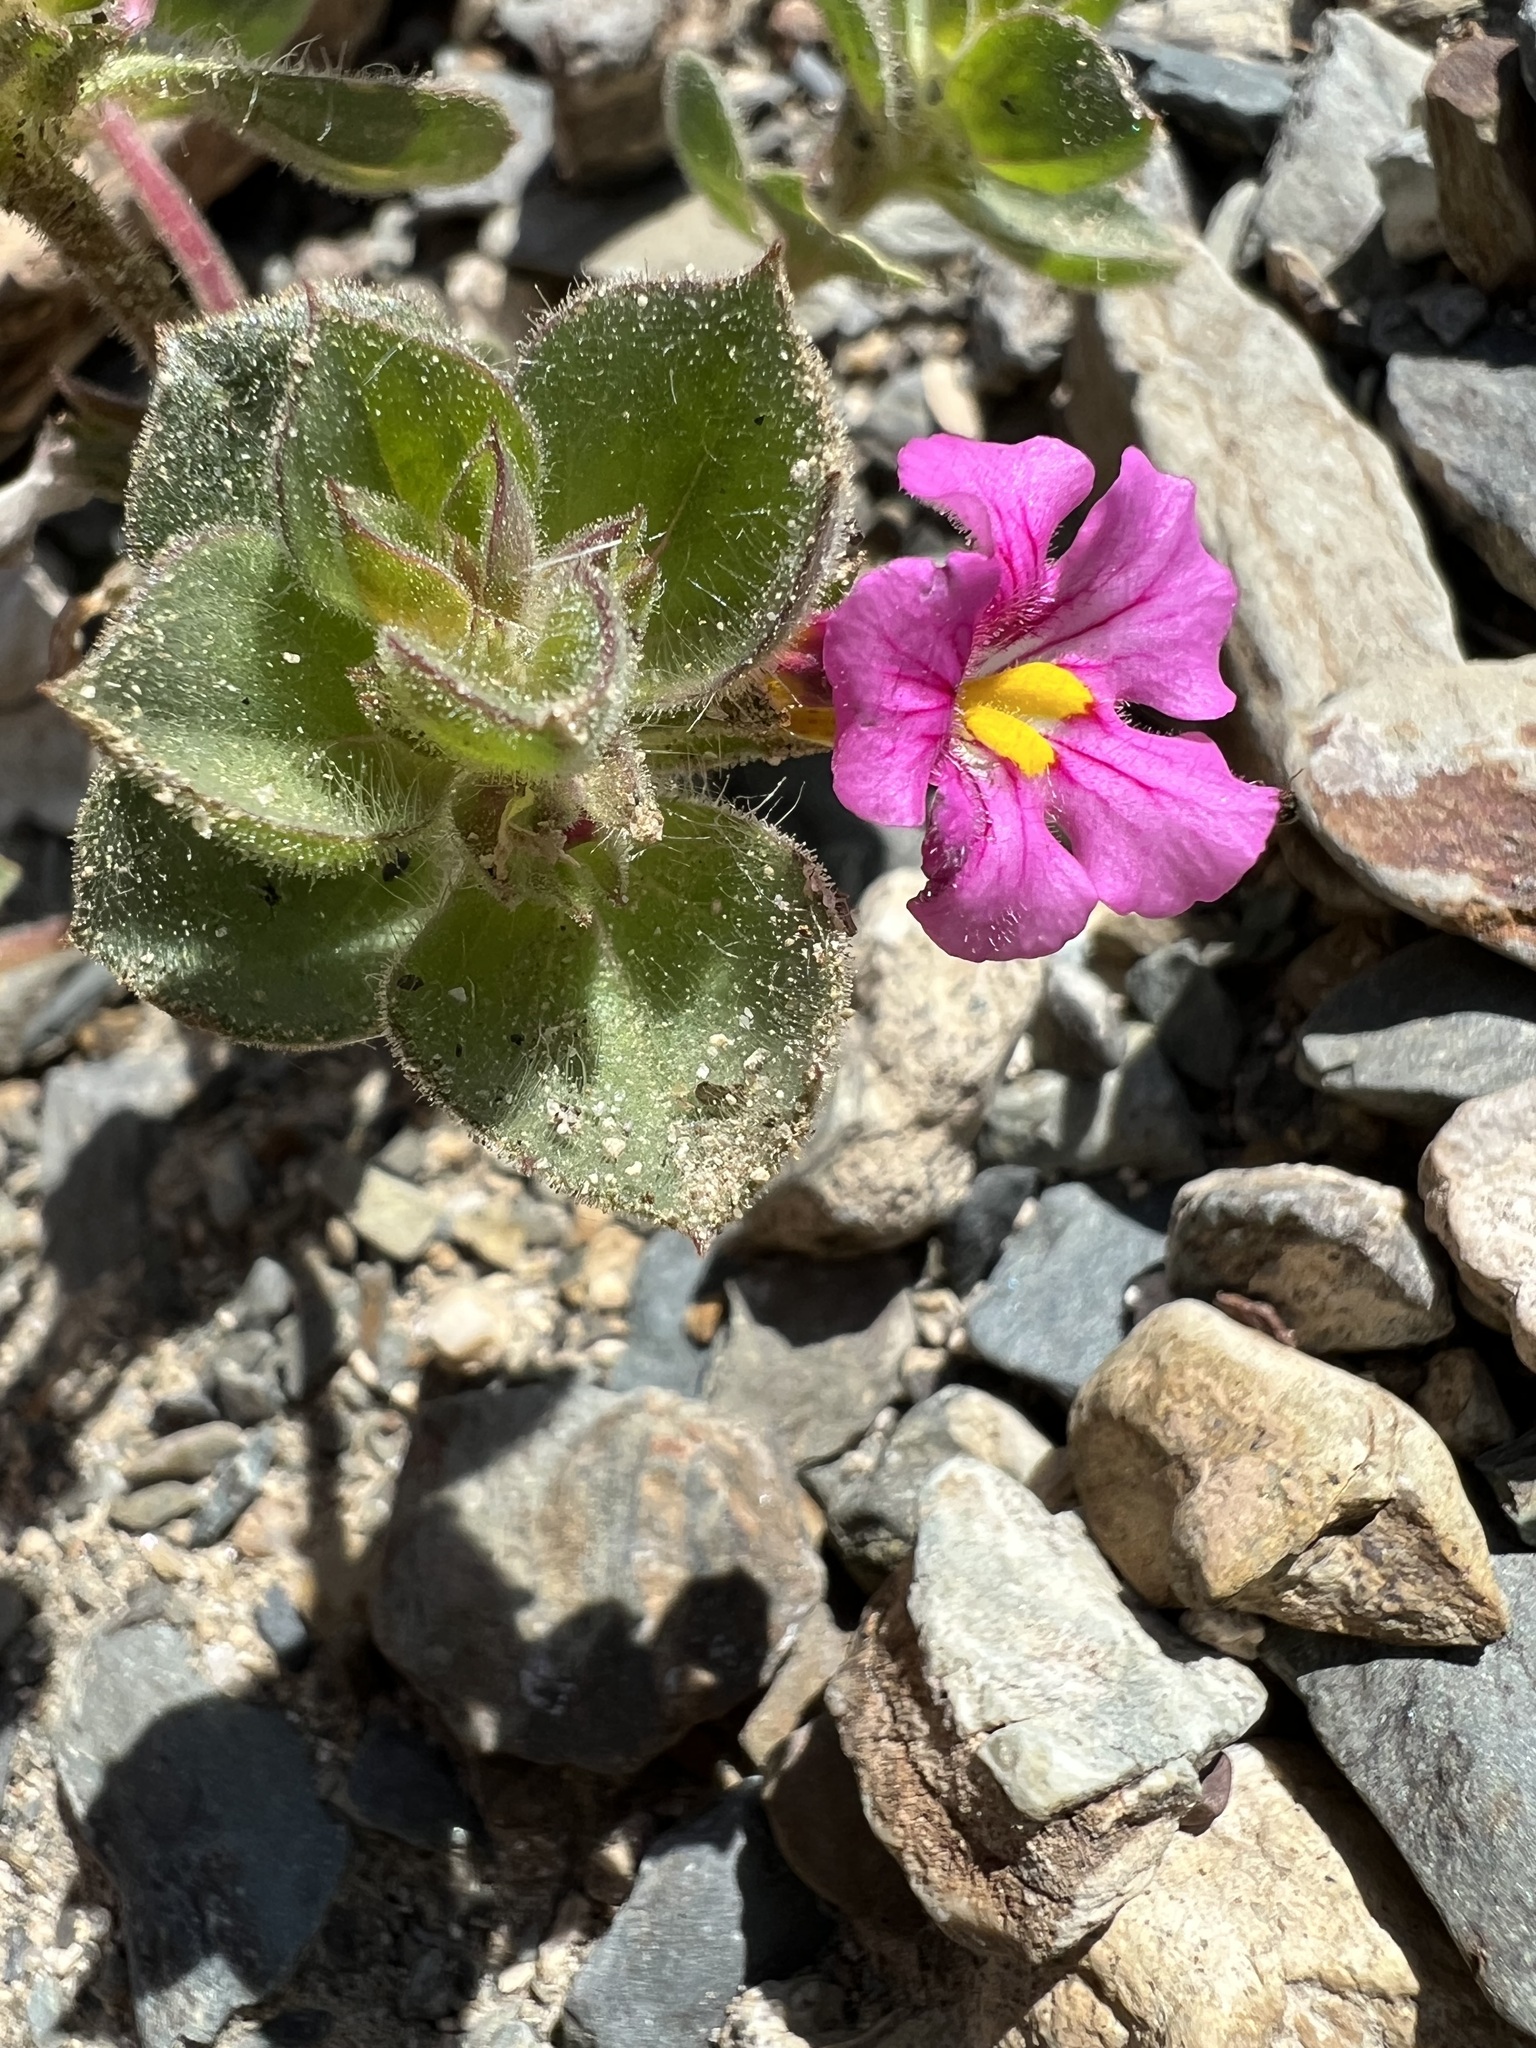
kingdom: Plantae
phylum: Tracheophyta
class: Magnoliopsida
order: Lamiales
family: Phrymaceae
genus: Diplacus
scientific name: Diplacus bigelovii
